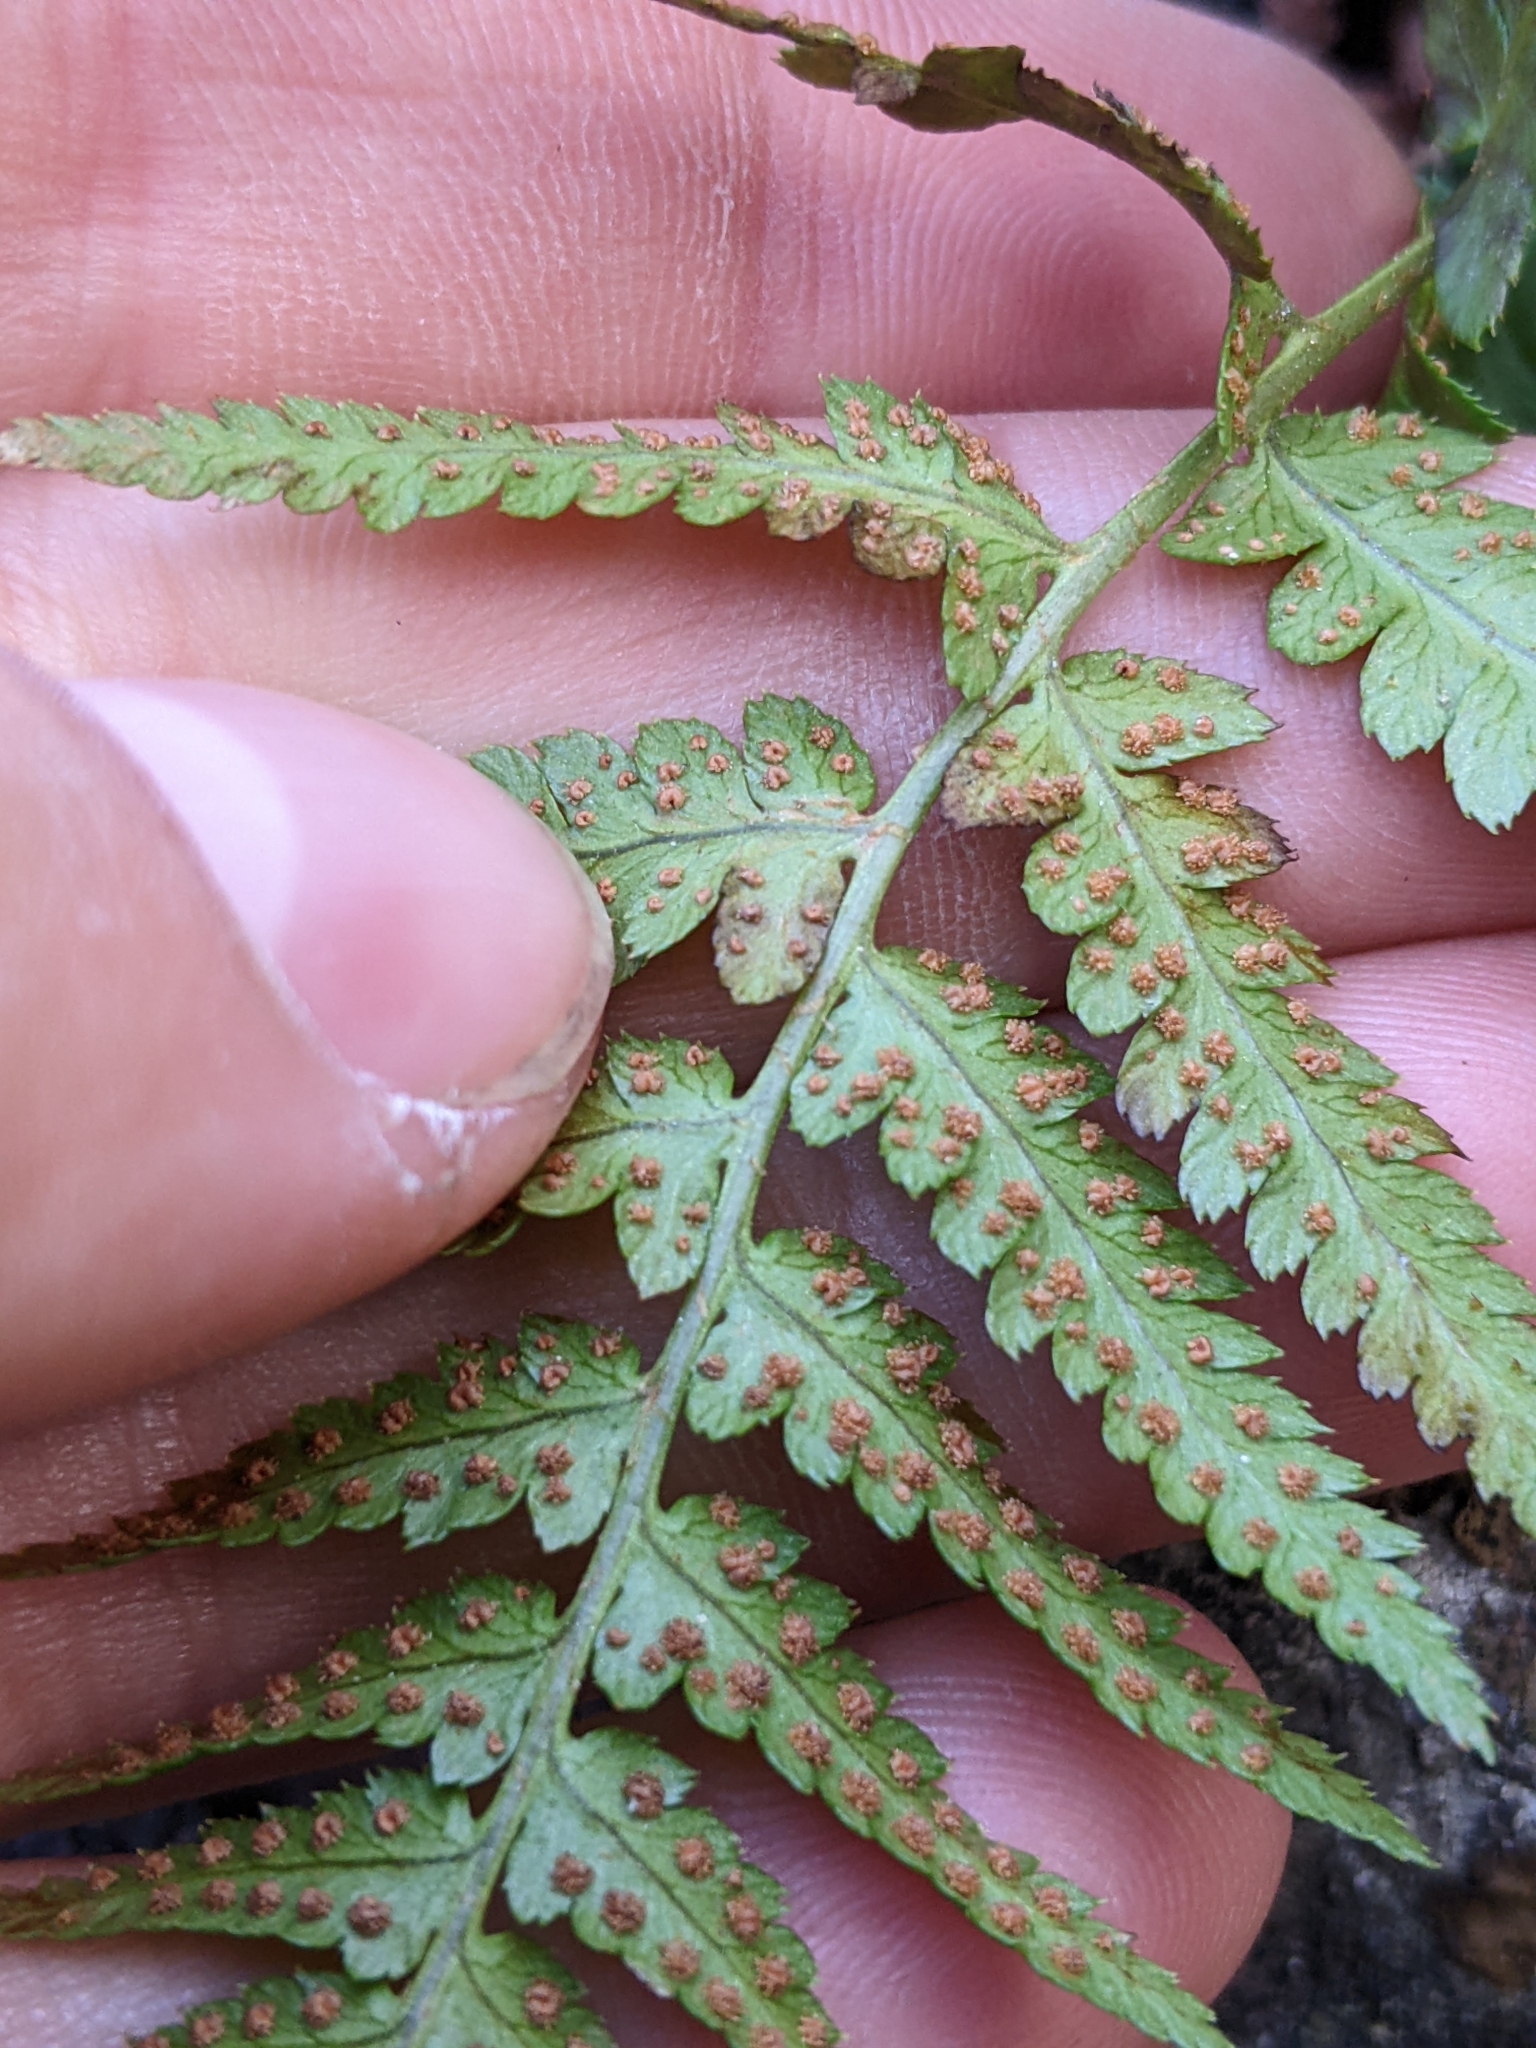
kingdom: Plantae
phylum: Tracheophyta
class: Polypodiopsida
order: Polypodiales
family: Dryopteridaceae
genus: Dryopteris
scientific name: Dryopteris arguta
